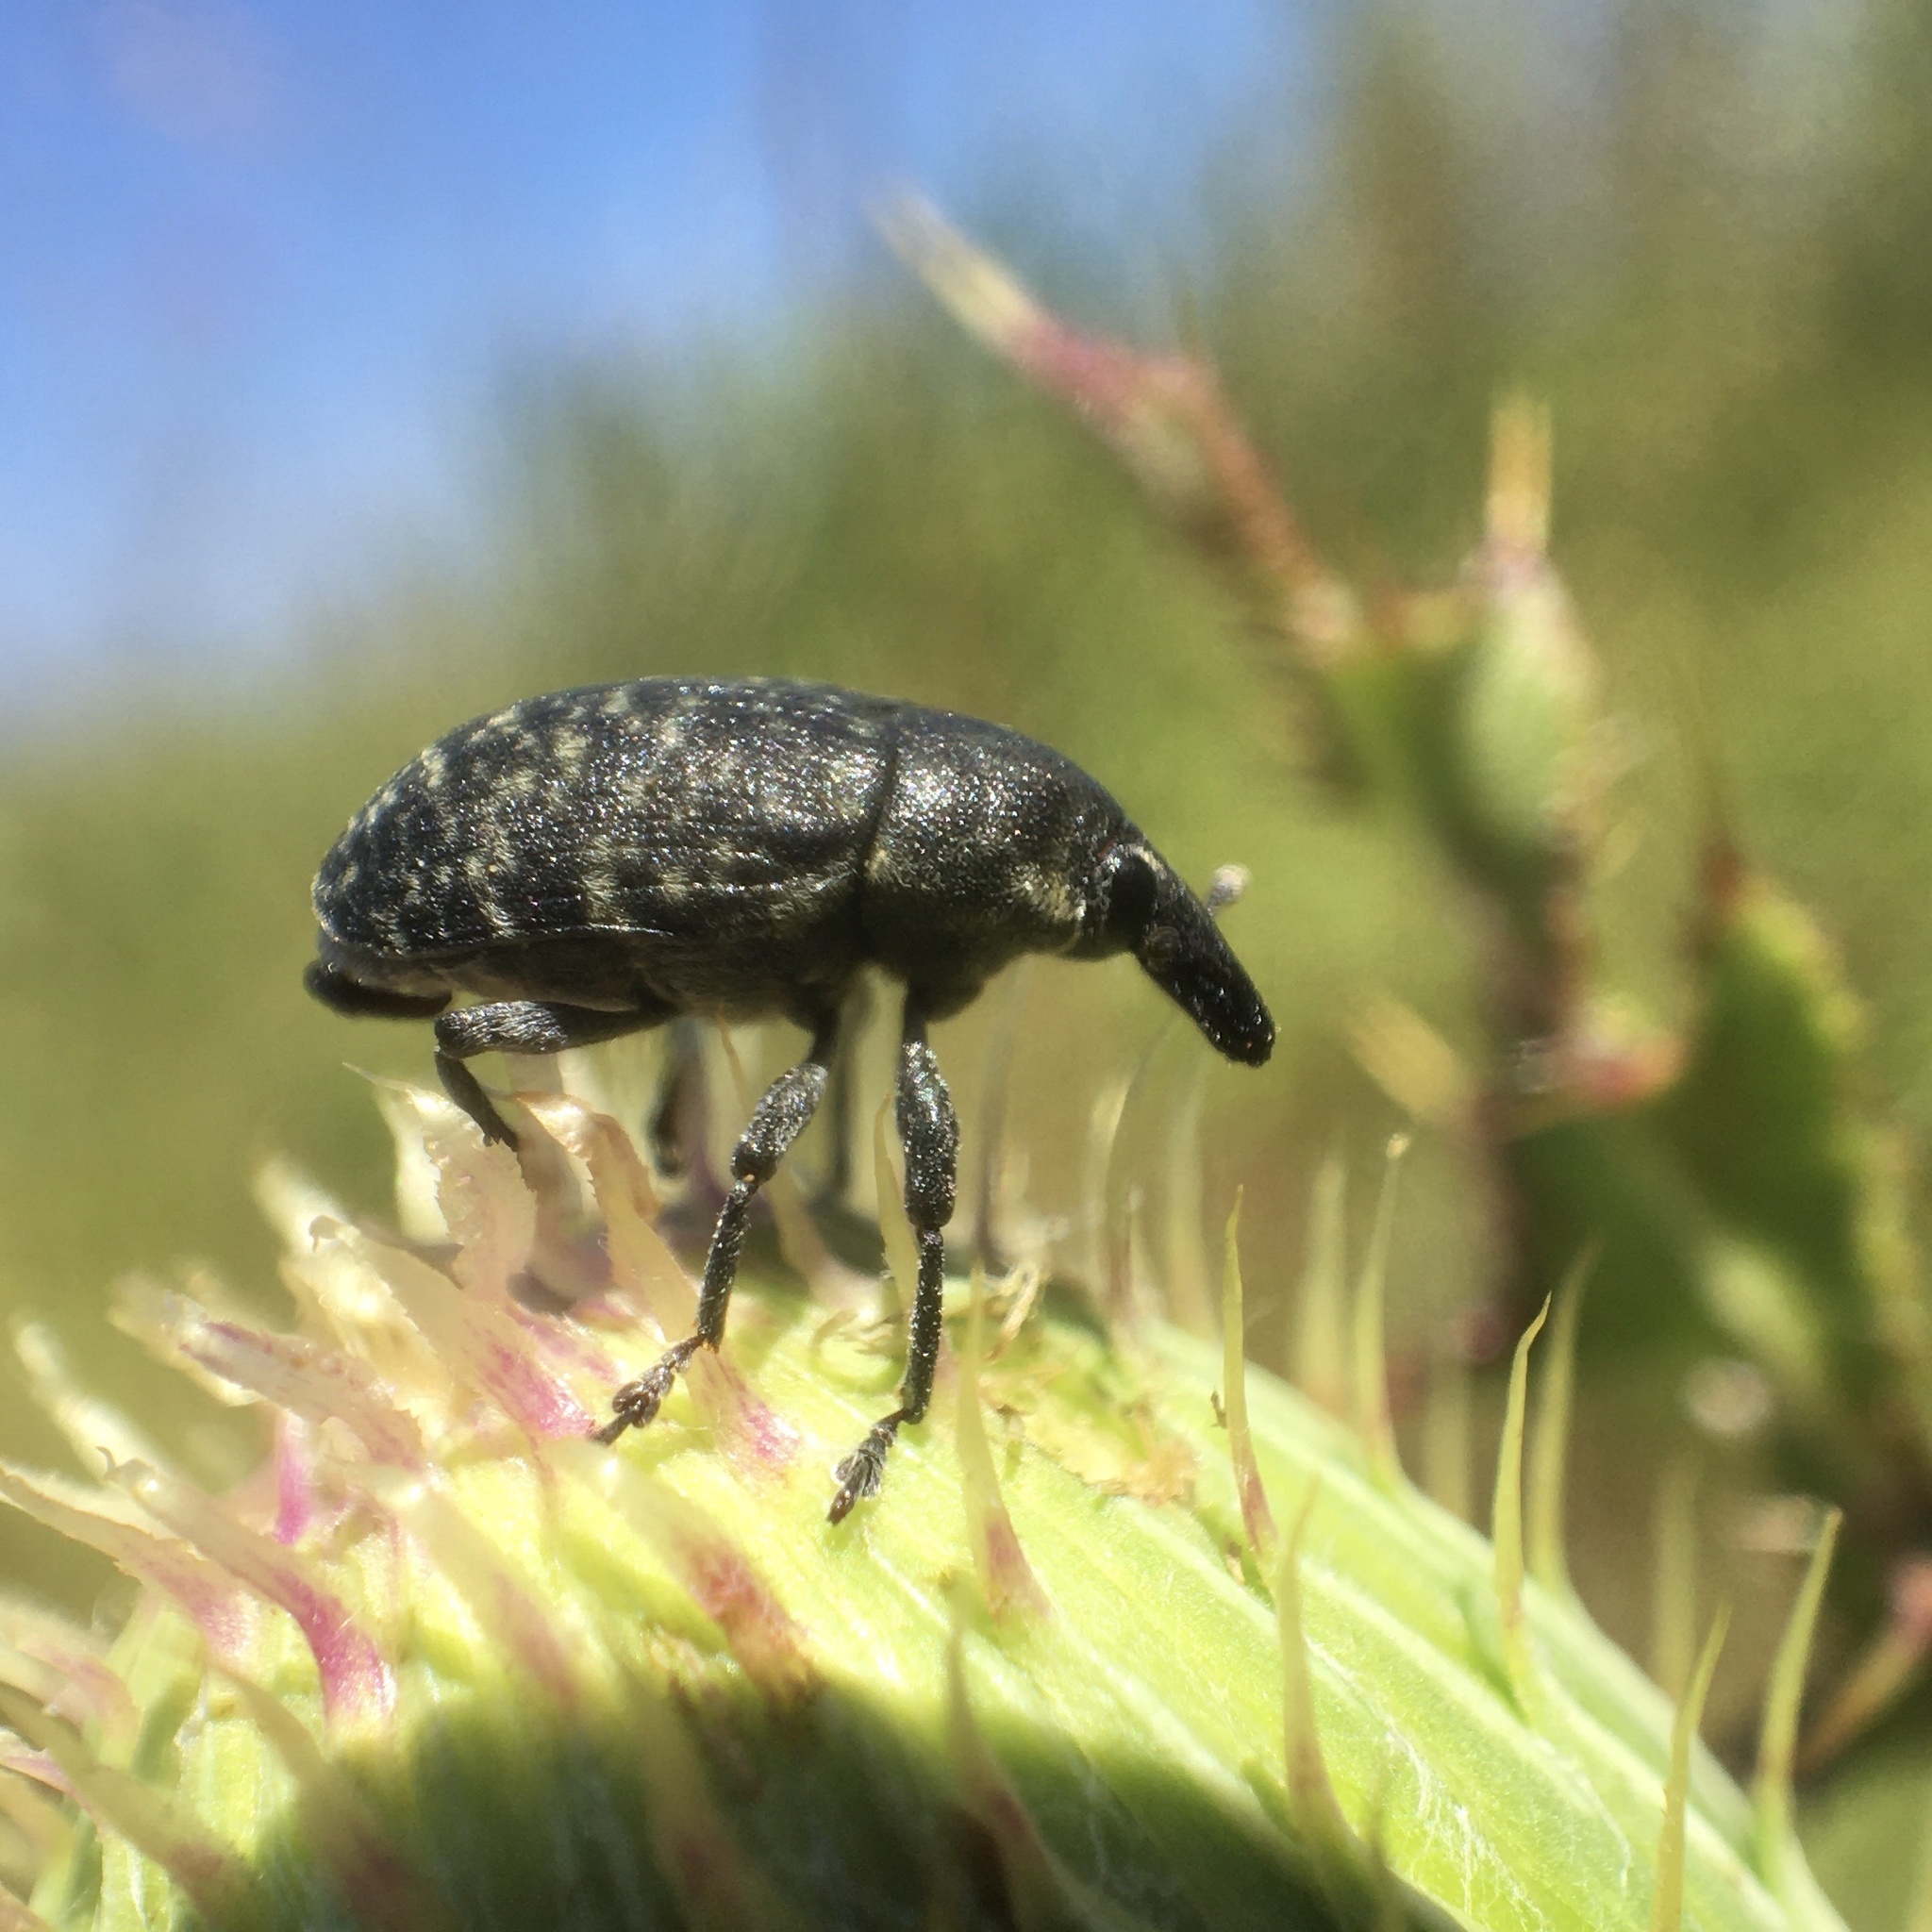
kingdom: Animalia
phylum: Arthropoda
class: Insecta
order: Coleoptera
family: Curculionidae
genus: Larinus
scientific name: Larinus turbinatus
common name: Weevil
